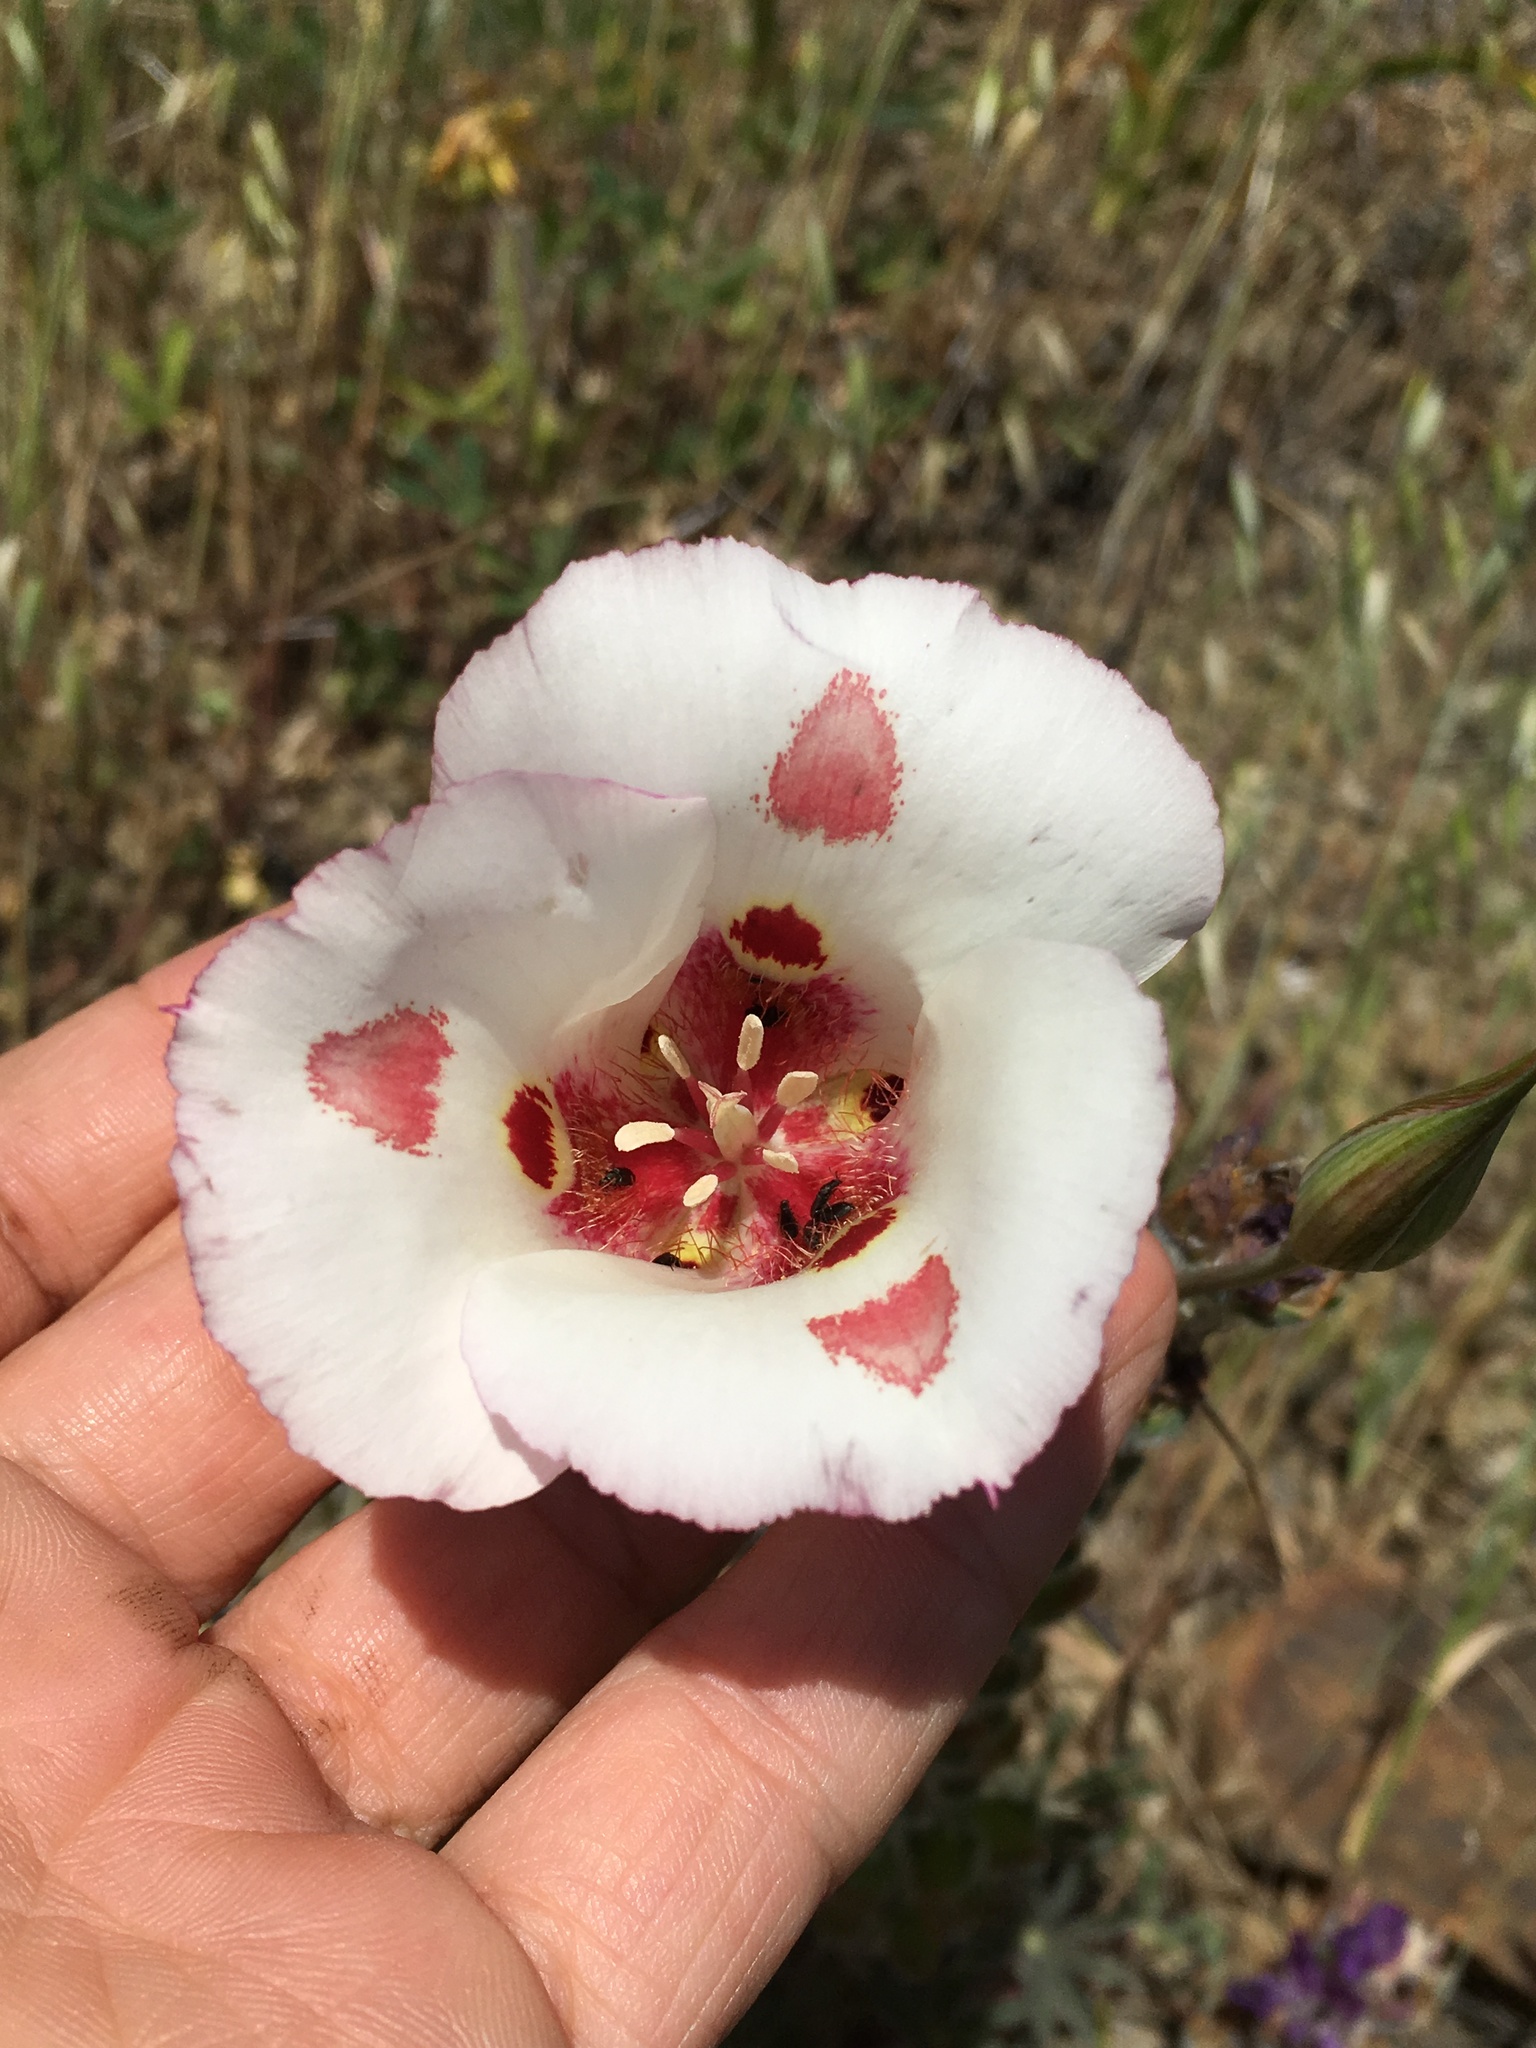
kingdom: Plantae
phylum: Tracheophyta
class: Liliopsida
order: Liliales
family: Liliaceae
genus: Calochortus
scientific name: Calochortus venustus
